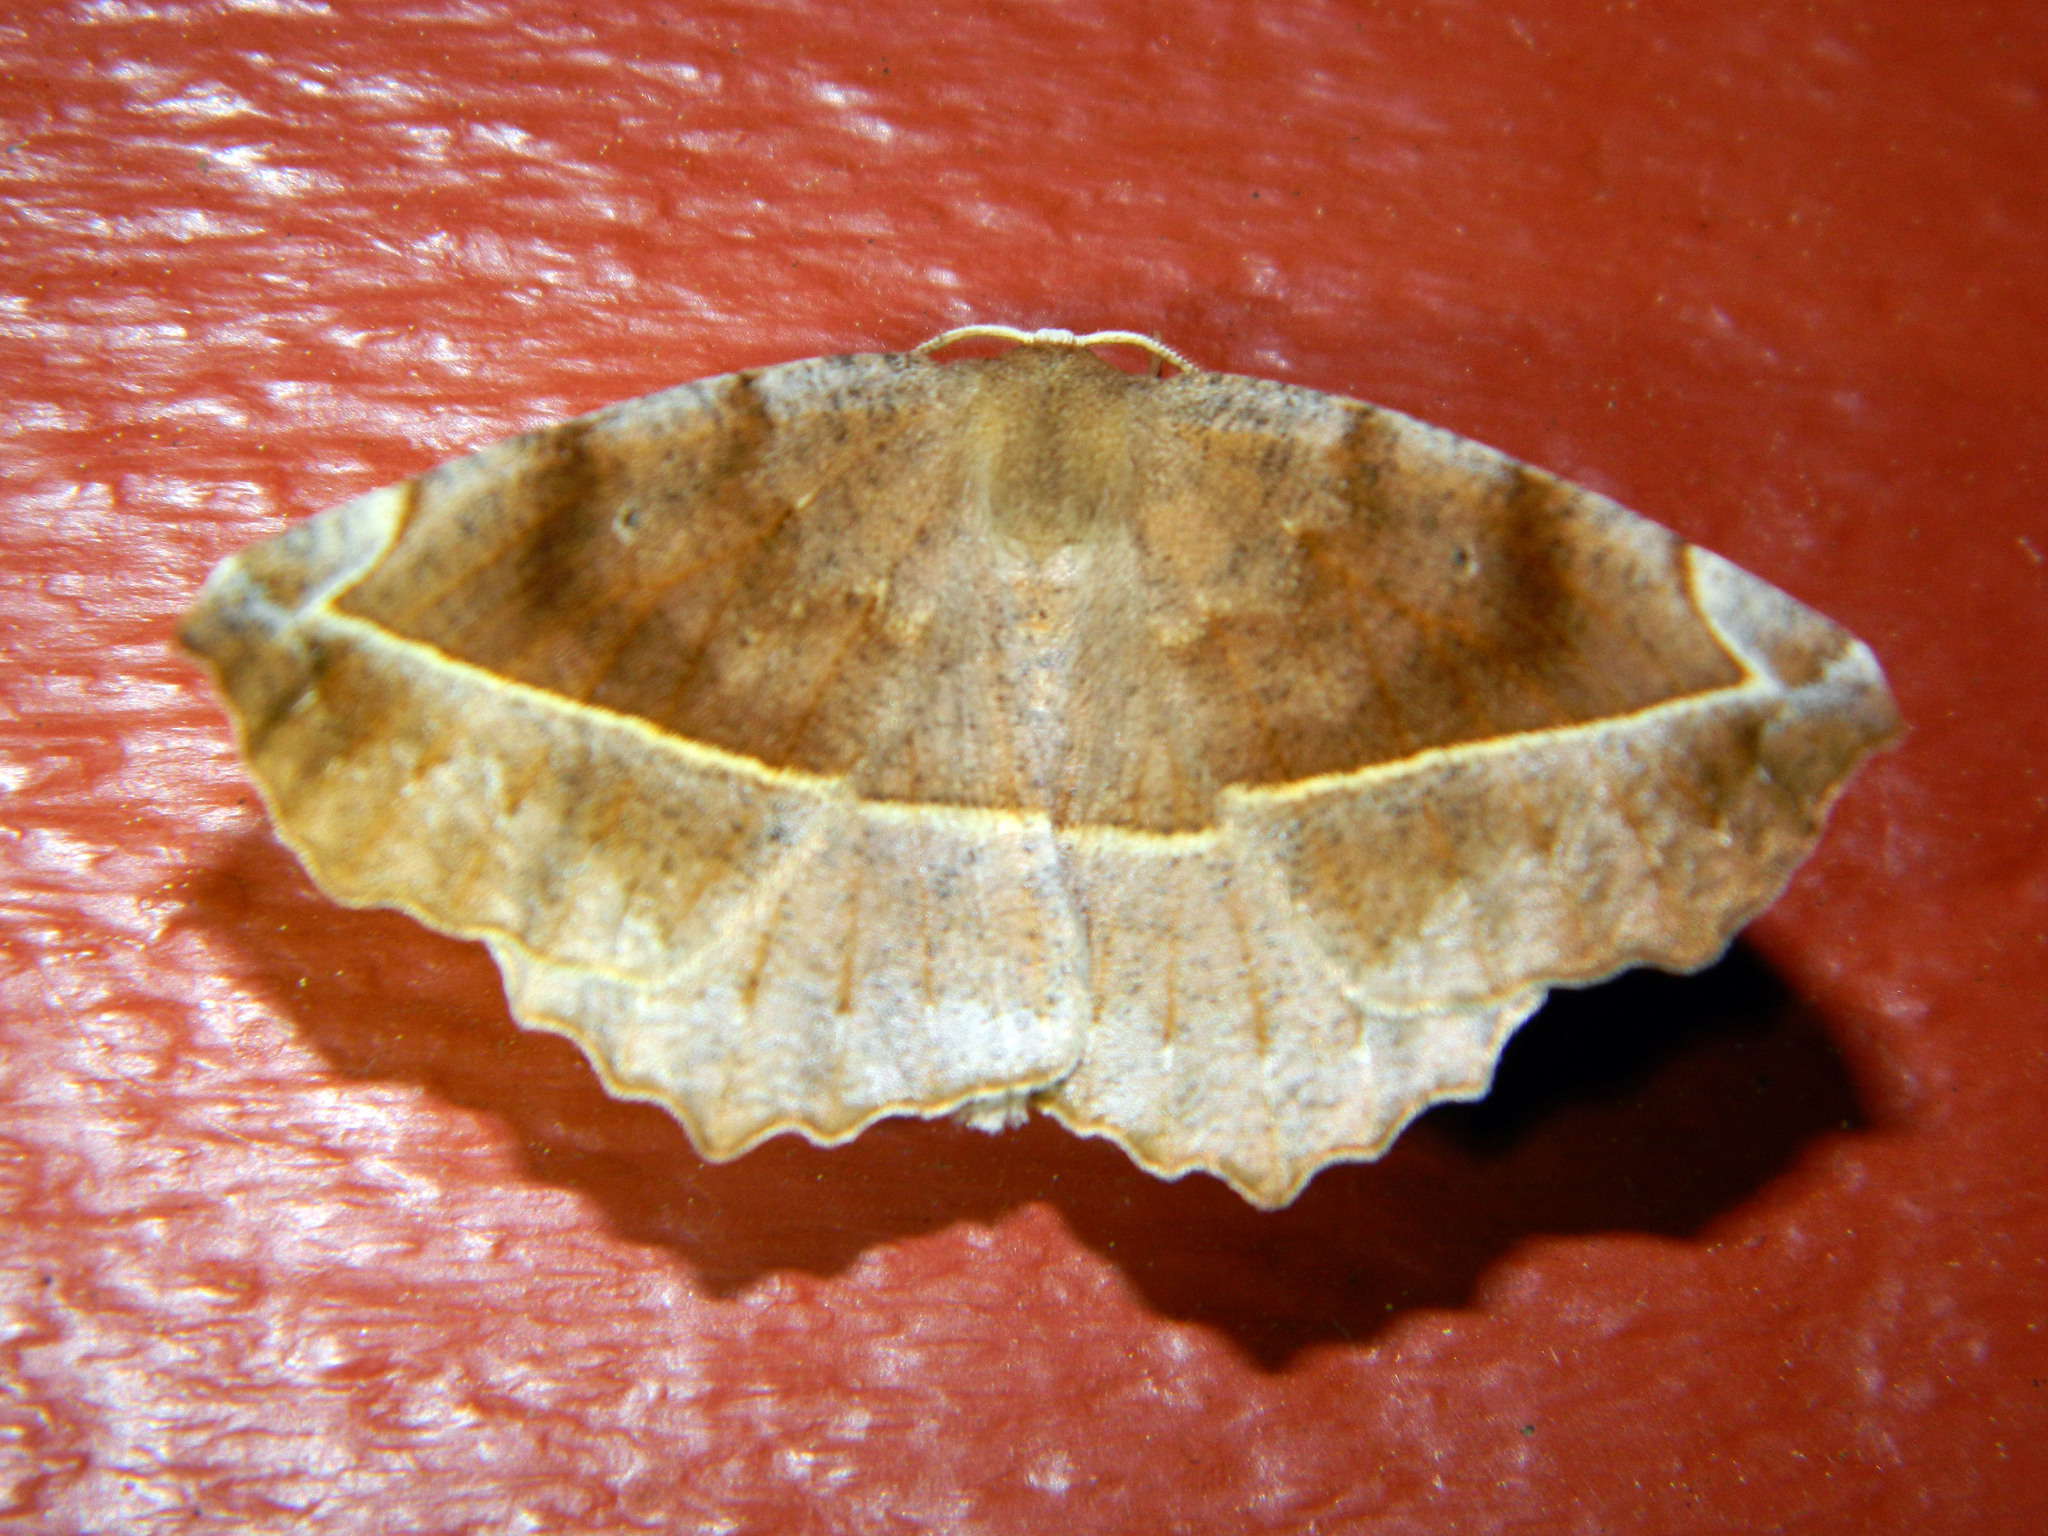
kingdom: Animalia
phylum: Arthropoda
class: Insecta
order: Lepidoptera
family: Geometridae
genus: Eutrapela
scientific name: Eutrapela clemataria
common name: Curved-toothed geometer
